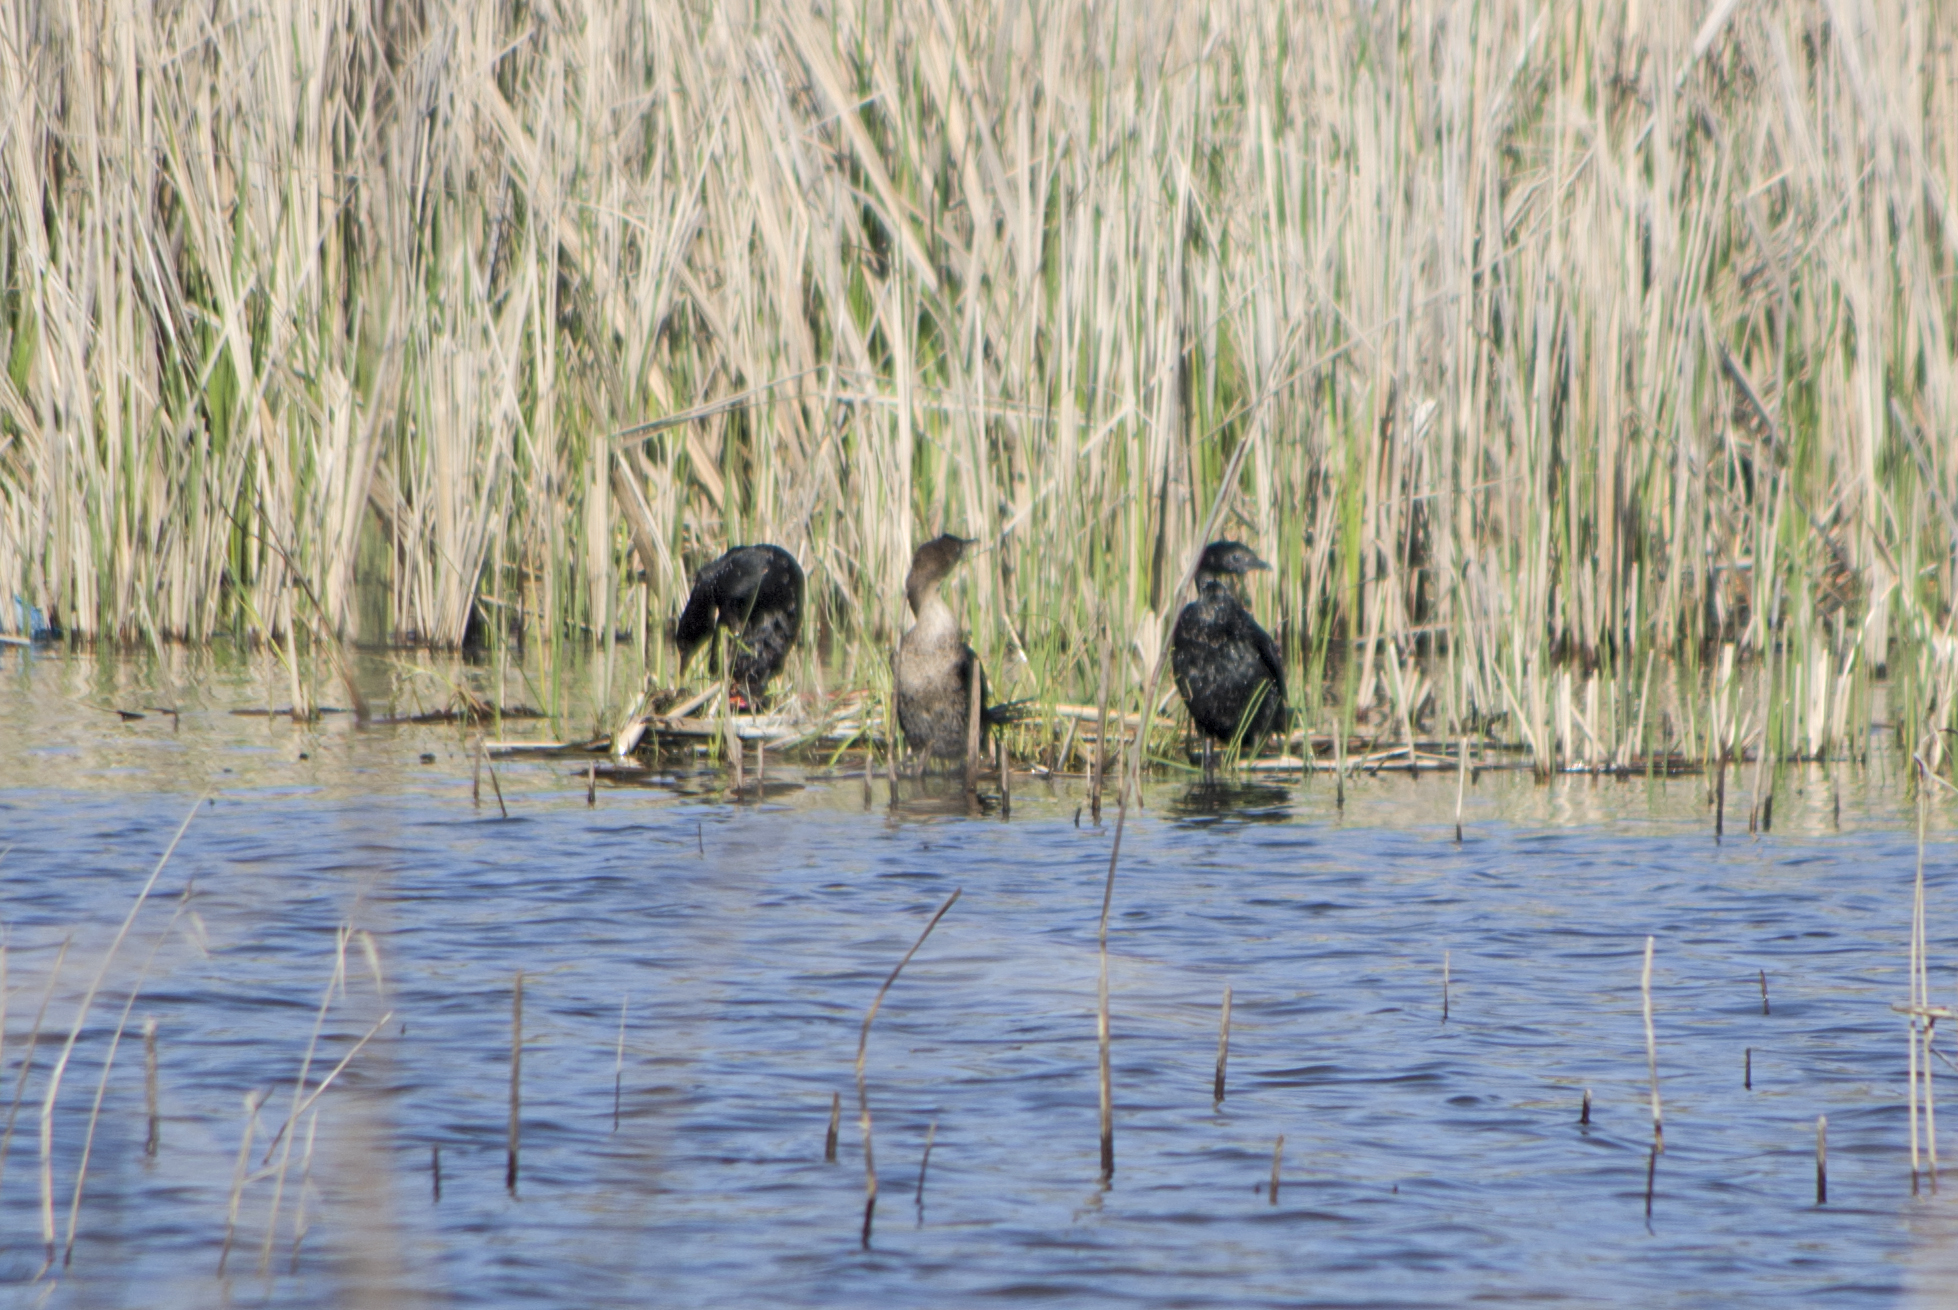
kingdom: Animalia
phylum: Chordata
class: Aves
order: Suliformes
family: Phalacrocoracidae
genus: Microcarbo
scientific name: Microcarbo pygmaeus
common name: Pygmy cormorant
